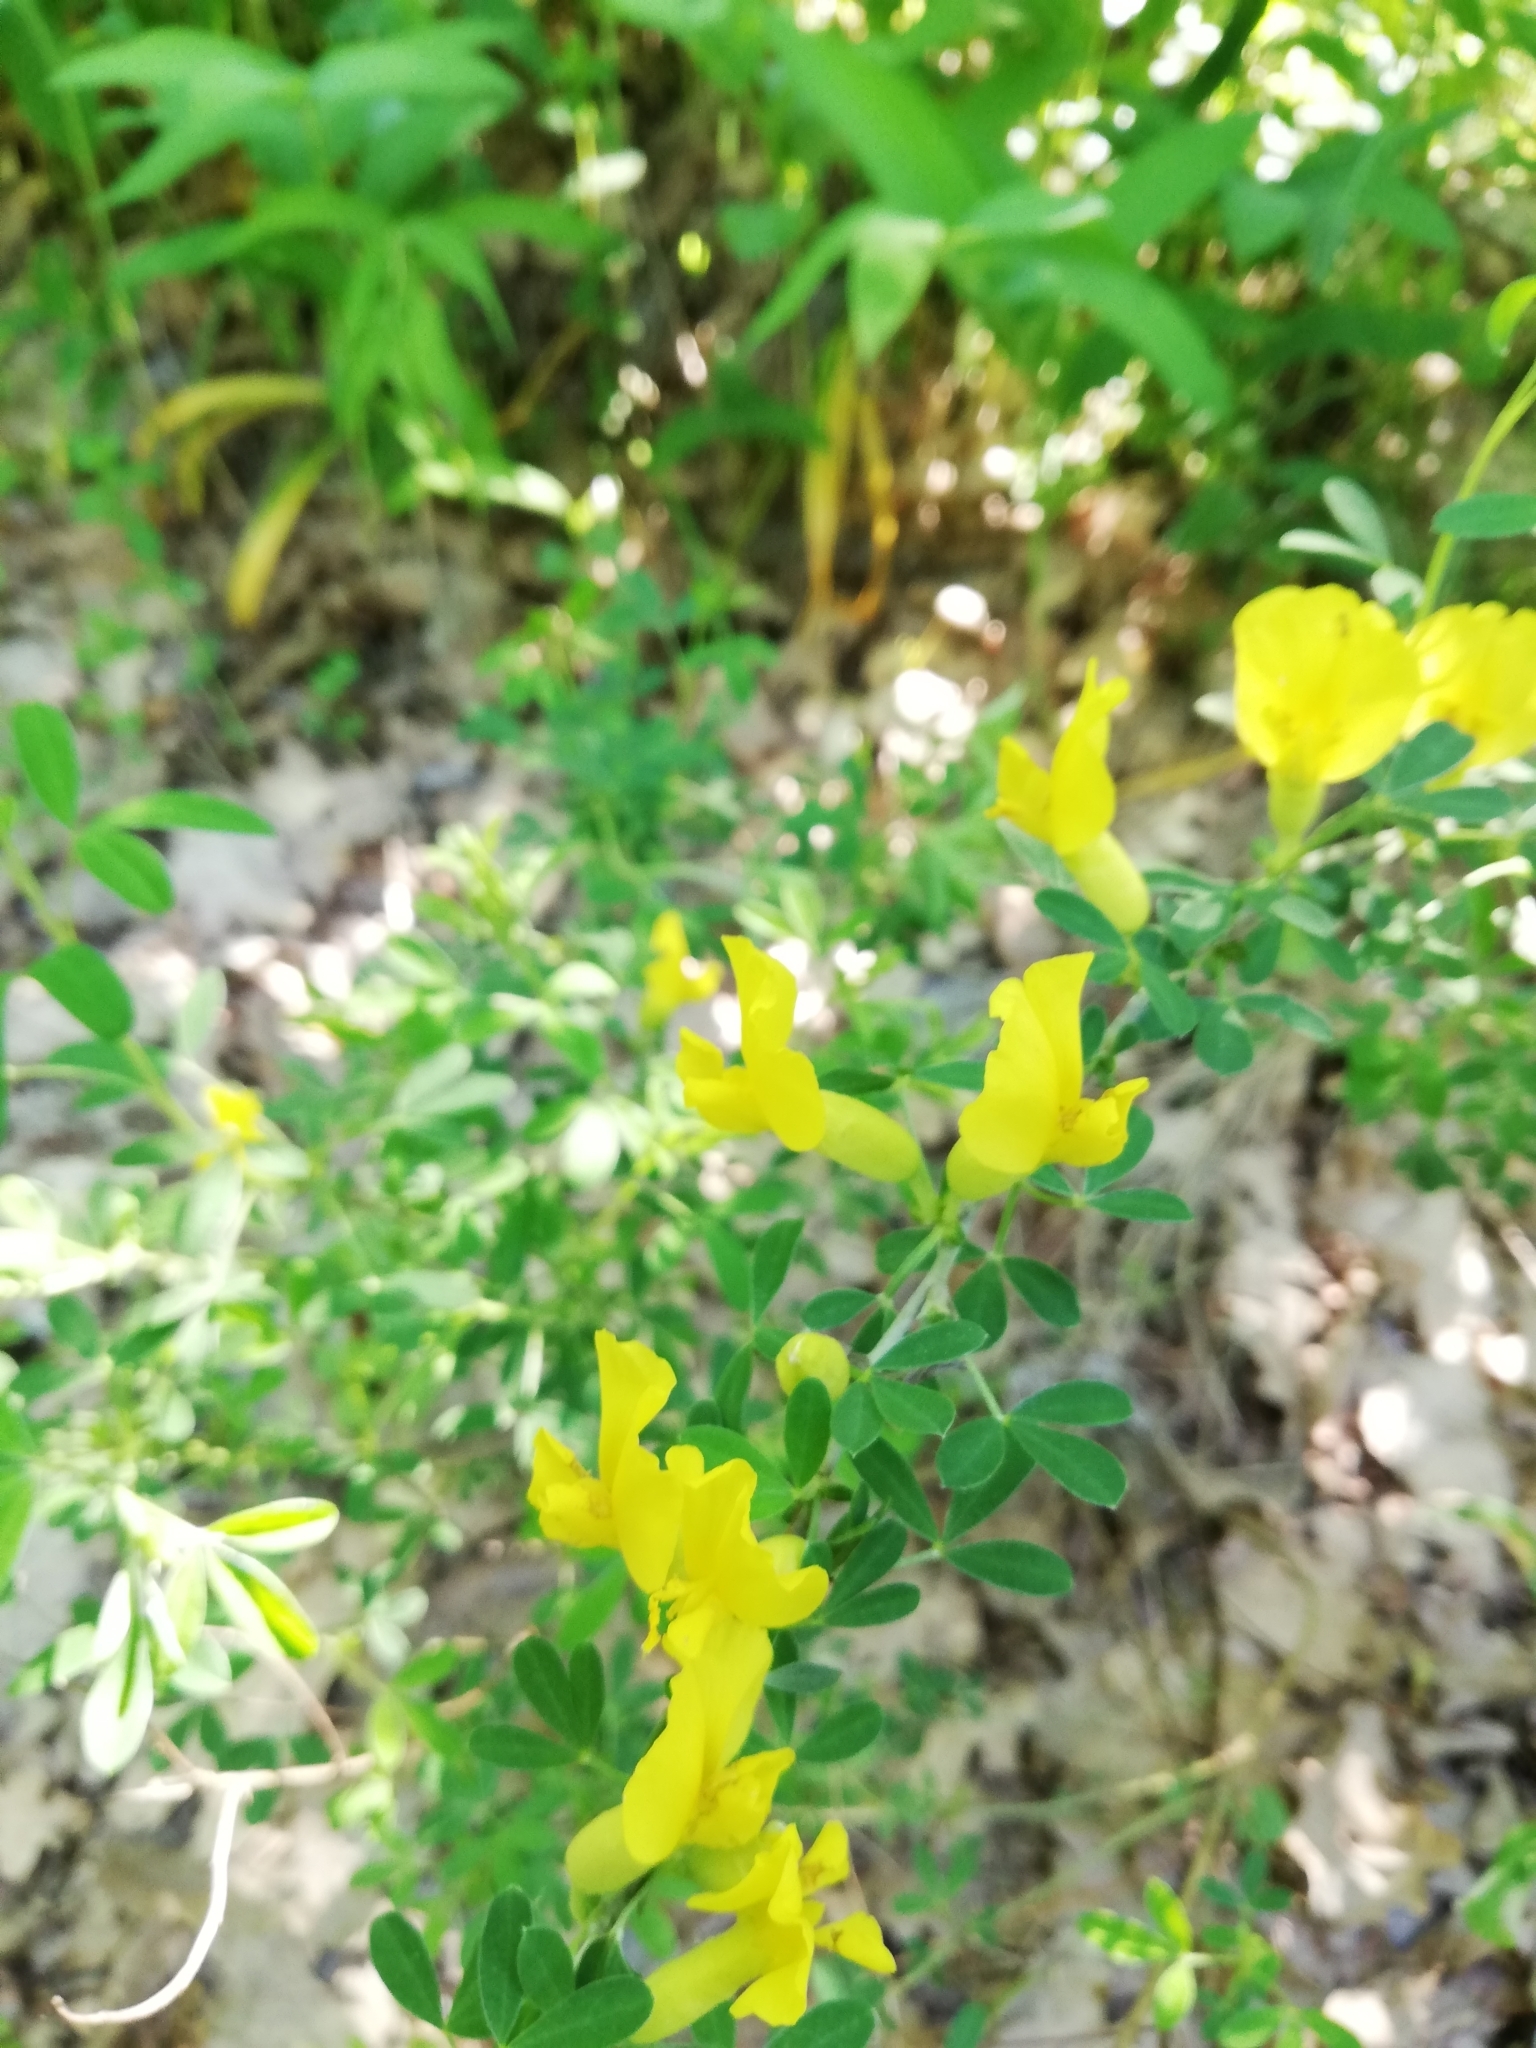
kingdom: Plantae
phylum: Tracheophyta
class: Magnoliopsida
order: Fabales
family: Fabaceae
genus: Chamaecytisus
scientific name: Chamaecytisus ruthenicus
